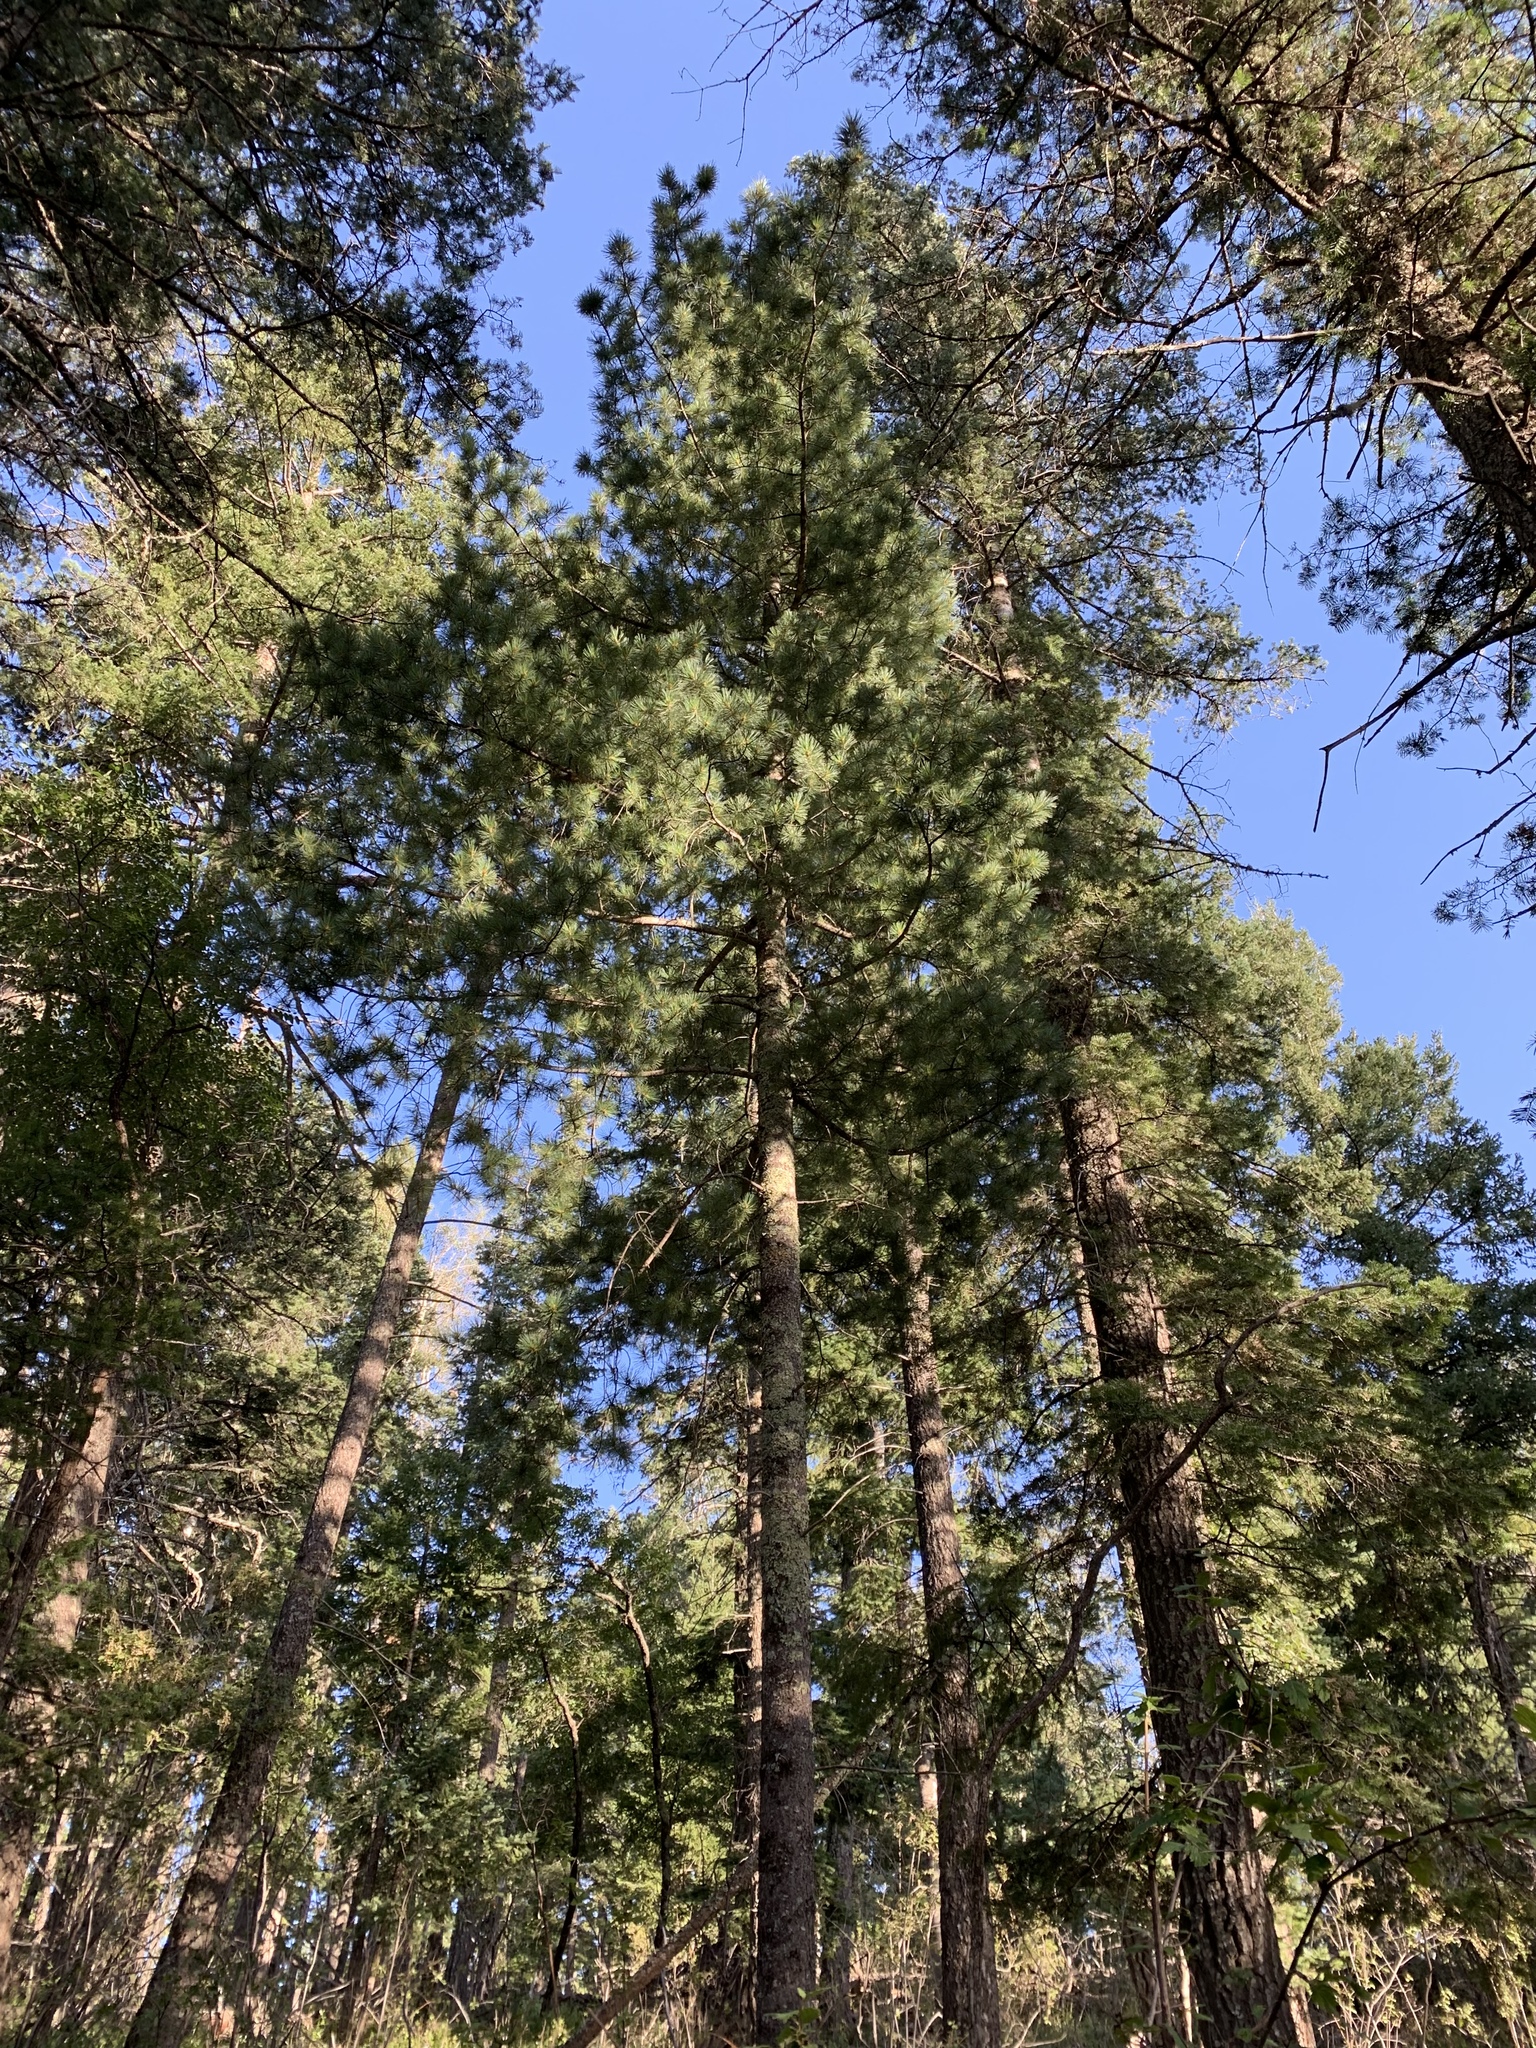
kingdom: Plantae
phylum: Tracheophyta
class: Pinopsida
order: Pinales
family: Pinaceae
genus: Pinus
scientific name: Pinus strobiformis
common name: Southwestern white pine
